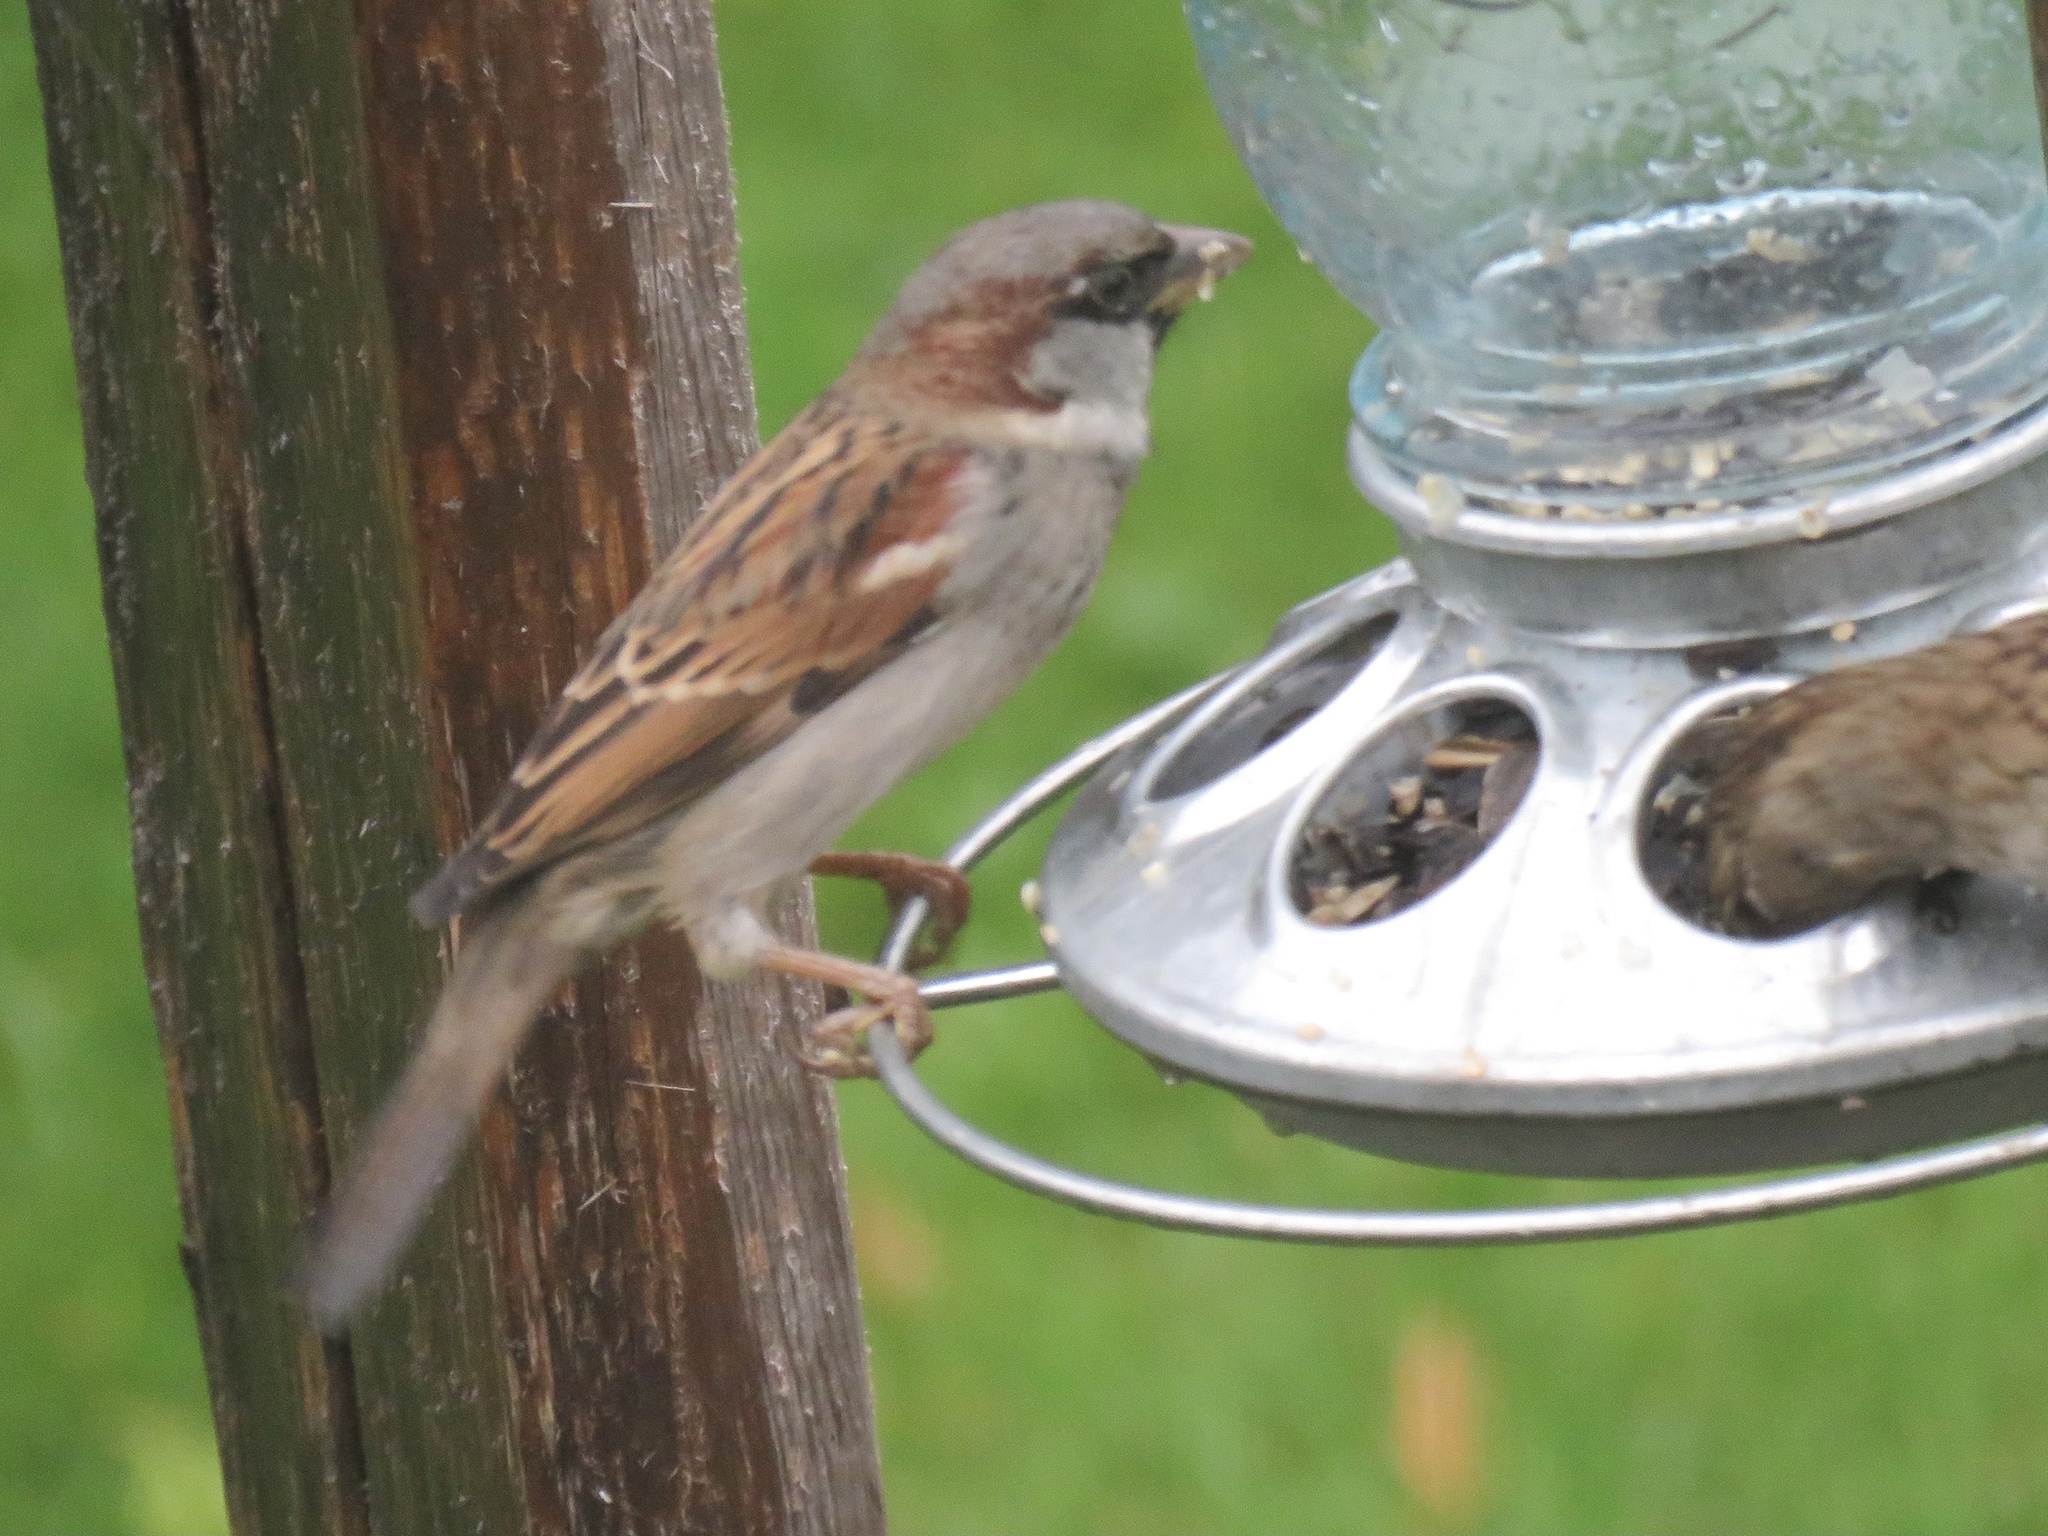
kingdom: Animalia
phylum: Chordata
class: Aves
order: Passeriformes
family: Passeridae
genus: Passer
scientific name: Passer domesticus
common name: House sparrow
